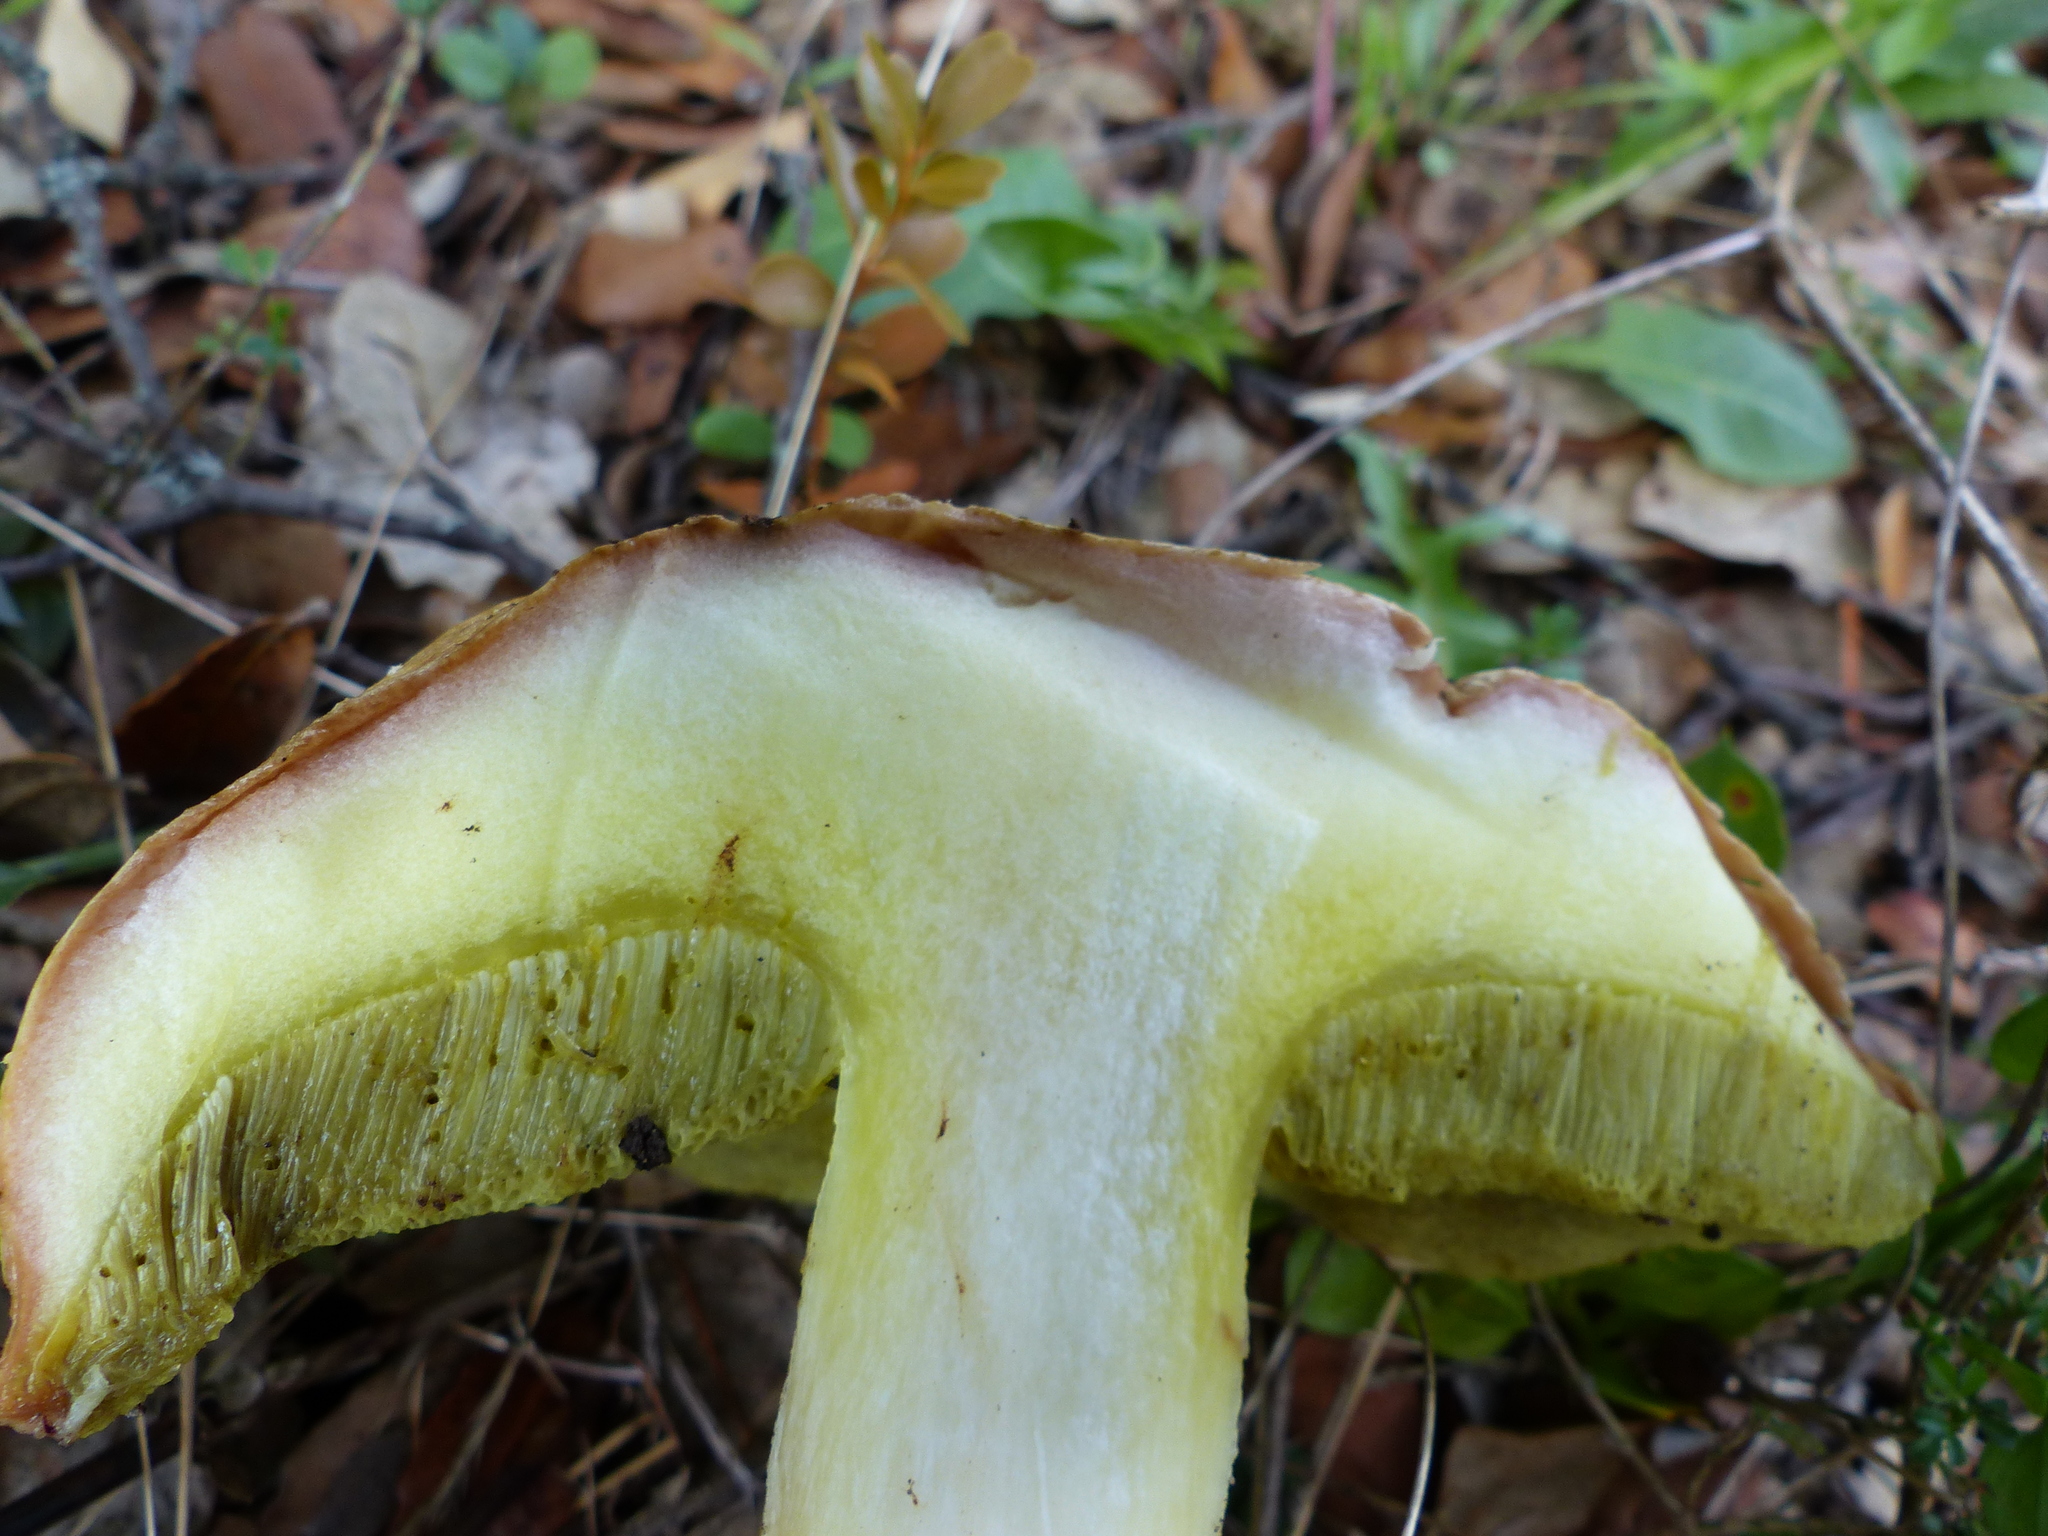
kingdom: Fungi
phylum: Basidiomycota
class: Agaricomycetes
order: Boletales
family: Boletaceae
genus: Hemileccinum
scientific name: Hemileccinum impolitum
